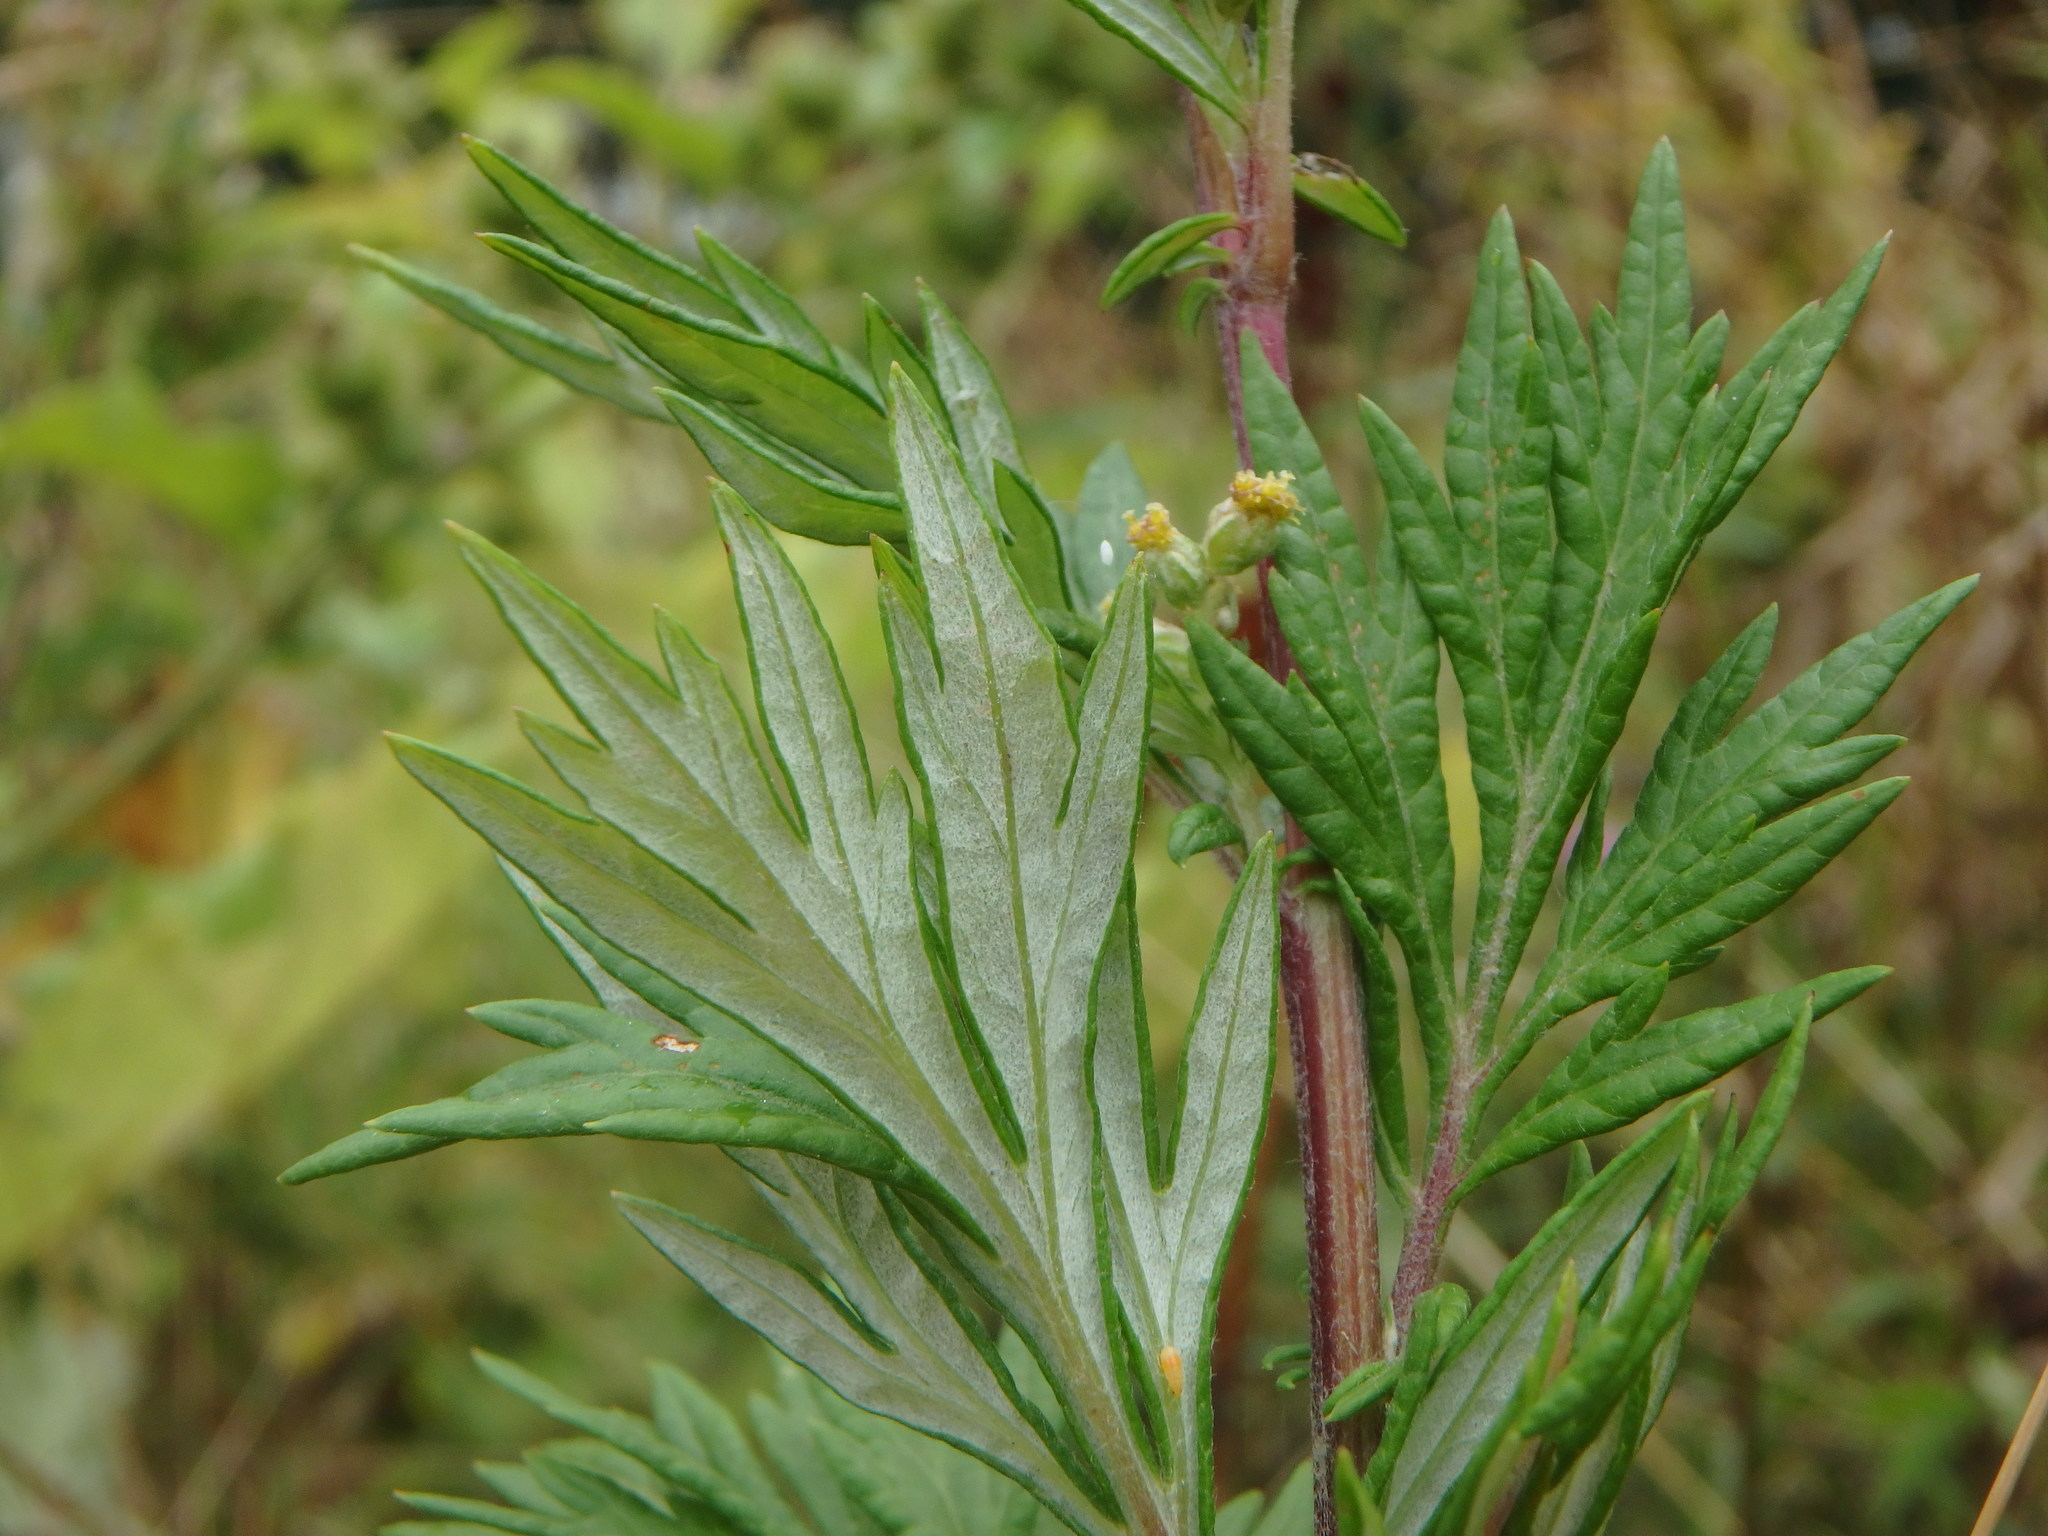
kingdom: Plantae
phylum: Tracheophyta
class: Magnoliopsida
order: Asterales
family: Asteraceae
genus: Artemisia
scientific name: Artemisia vulgaris
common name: Mugwort
